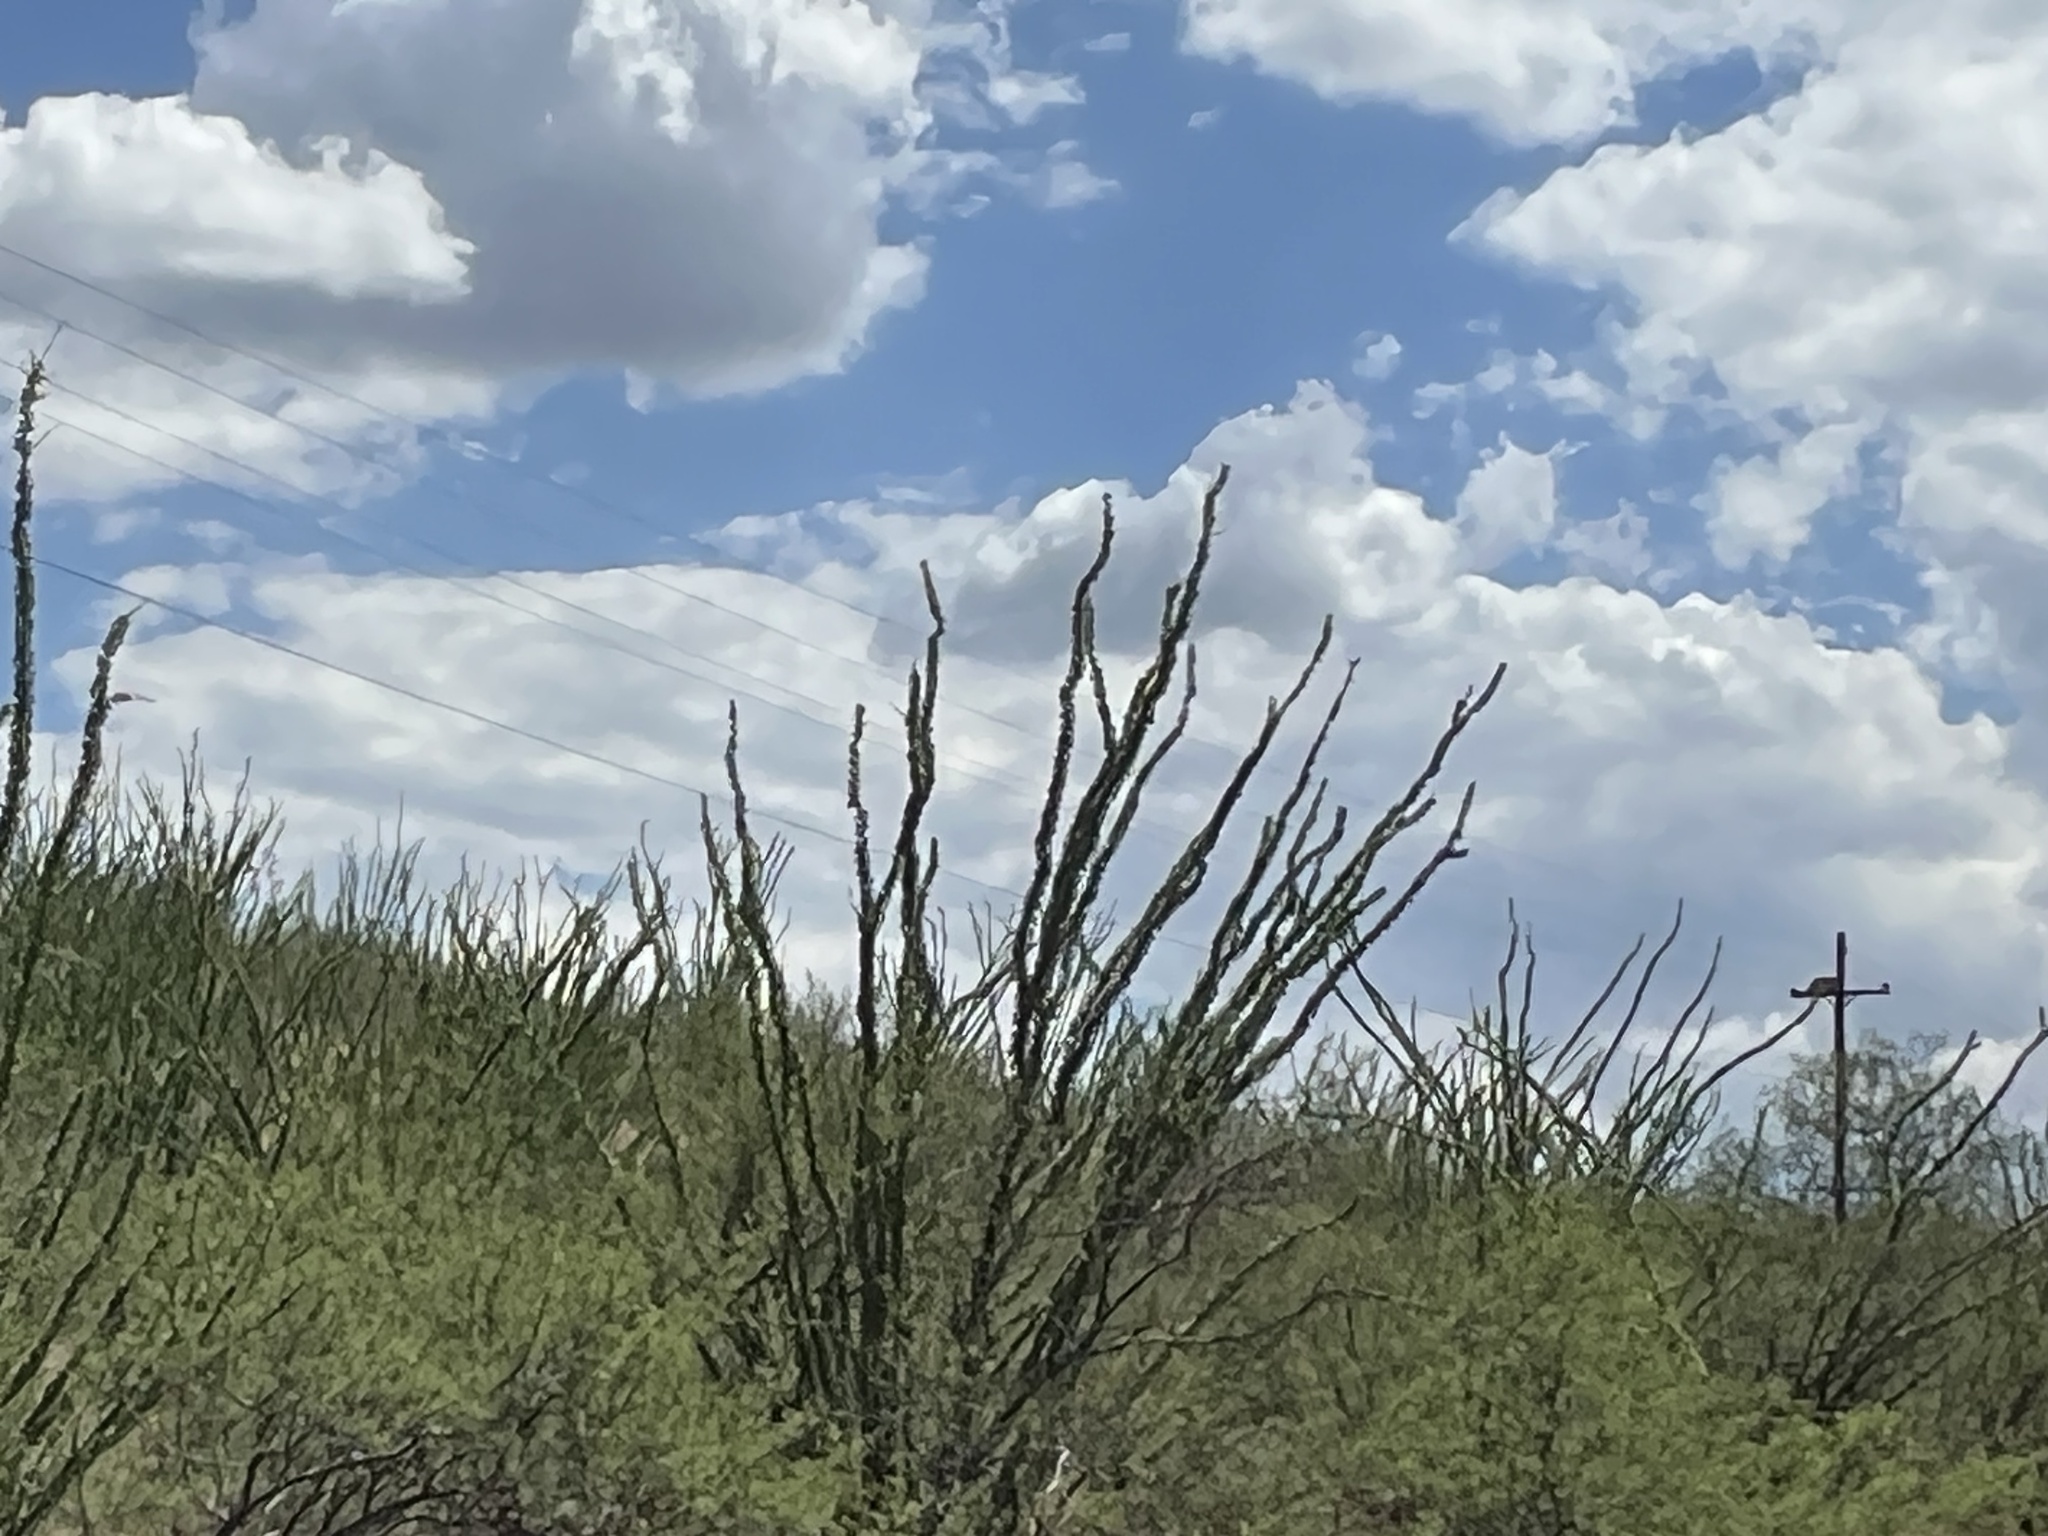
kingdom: Plantae
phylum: Tracheophyta
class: Magnoliopsida
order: Ericales
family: Fouquieriaceae
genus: Fouquieria
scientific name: Fouquieria splendens
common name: Vine-cactus
